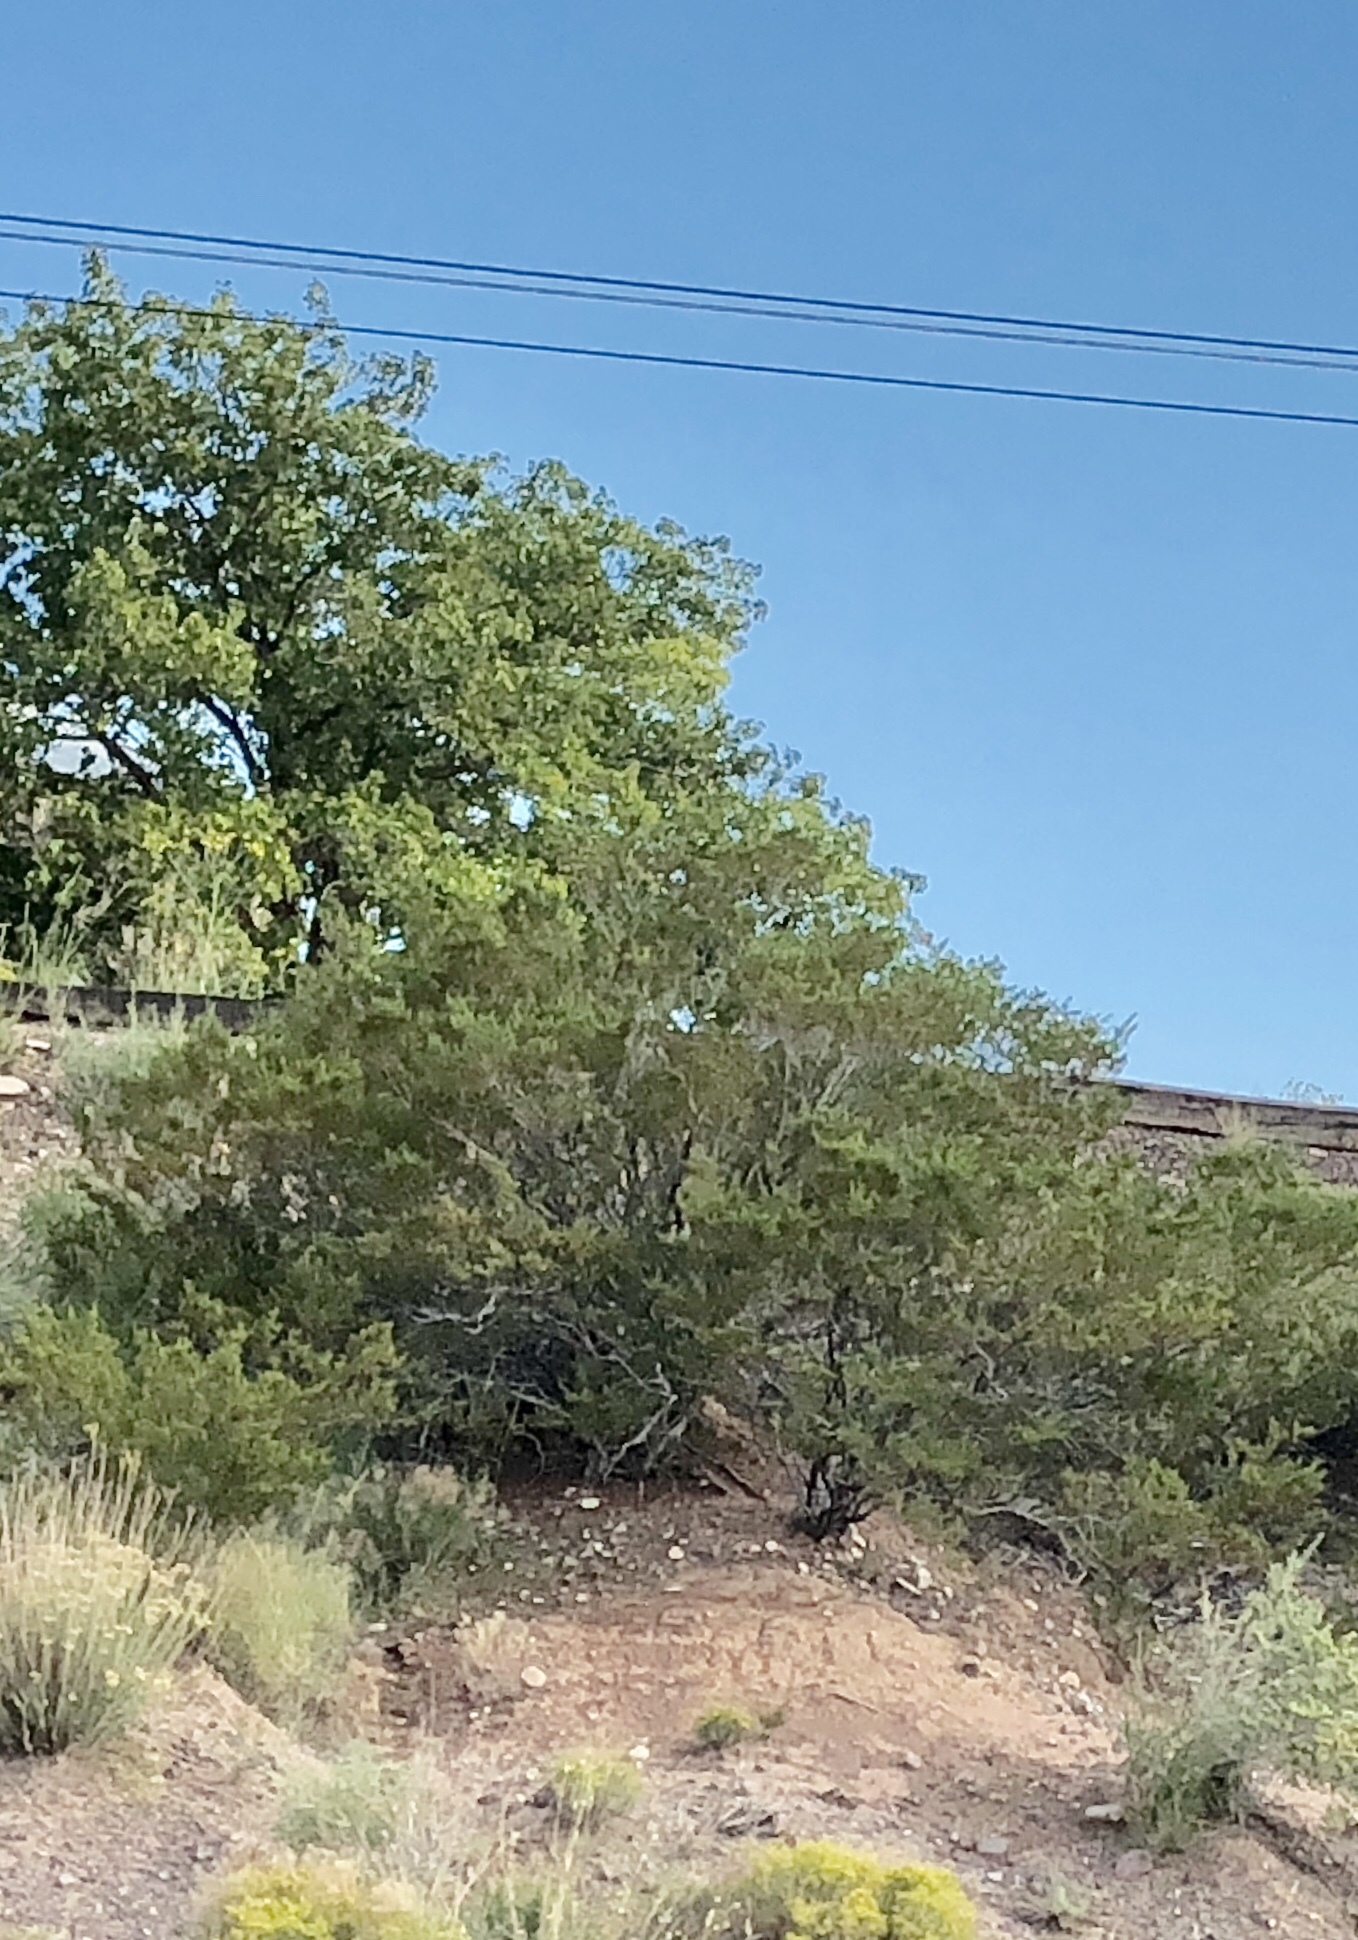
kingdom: Plantae
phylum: Tracheophyta
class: Magnoliopsida
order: Zygophyllales
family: Zygophyllaceae
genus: Larrea
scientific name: Larrea tridentata
